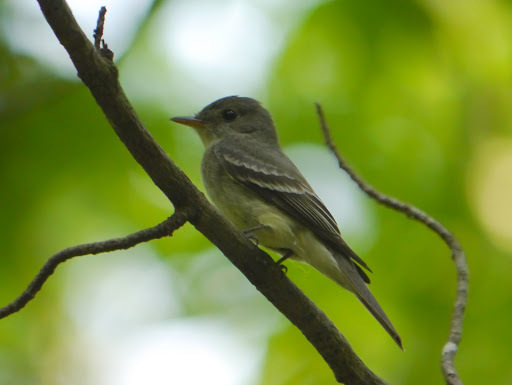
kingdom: Animalia
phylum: Chordata
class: Aves
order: Passeriformes
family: Tyrannidae
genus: Contopus
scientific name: Contopus virens
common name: Eastern wood-pewee
